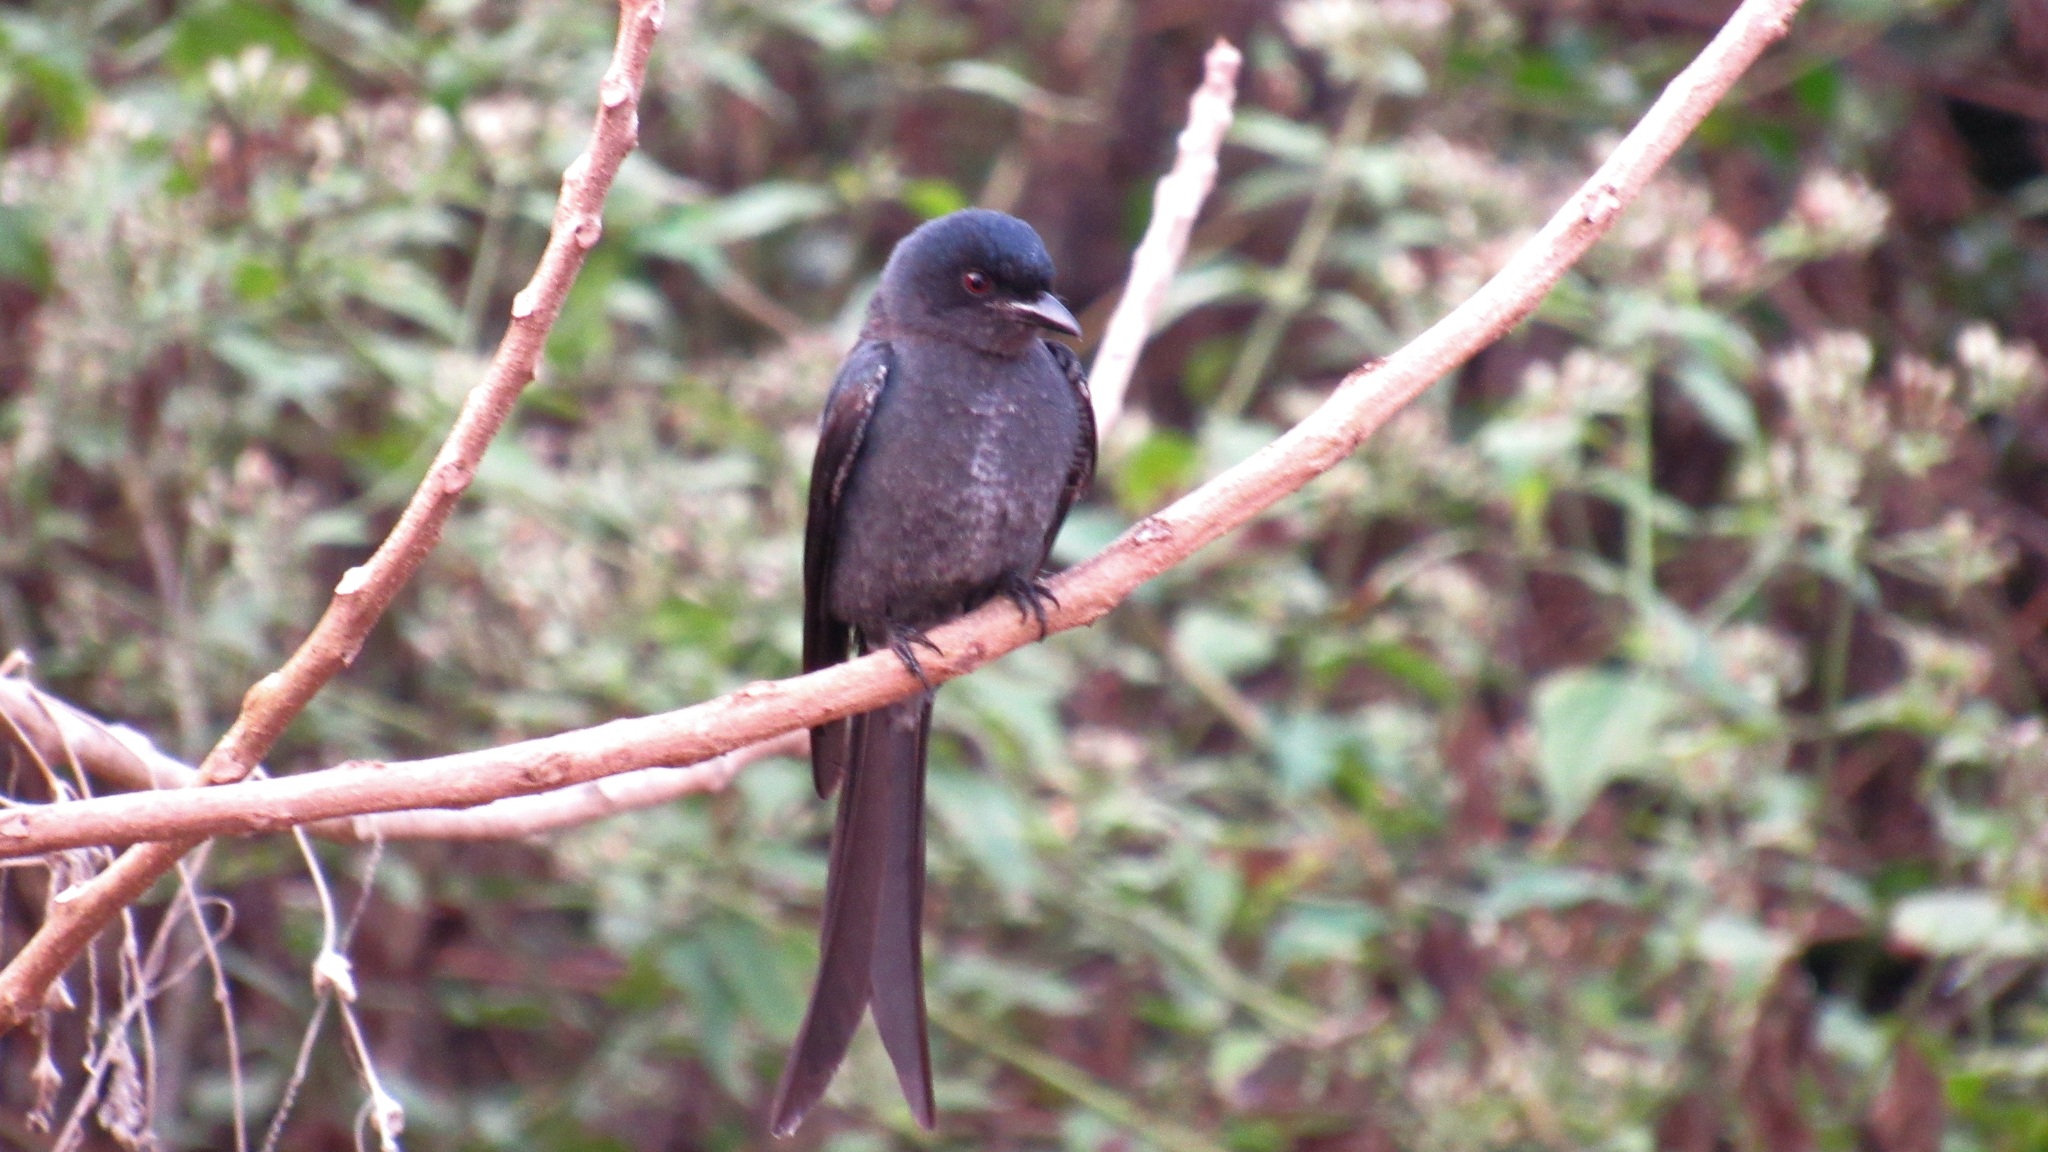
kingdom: Animalia
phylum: Chordata
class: Aves
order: Passeriformes
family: Dicruridae
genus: Dicrurus
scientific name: Dicrurus leucophaeus
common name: Ashy drongo
